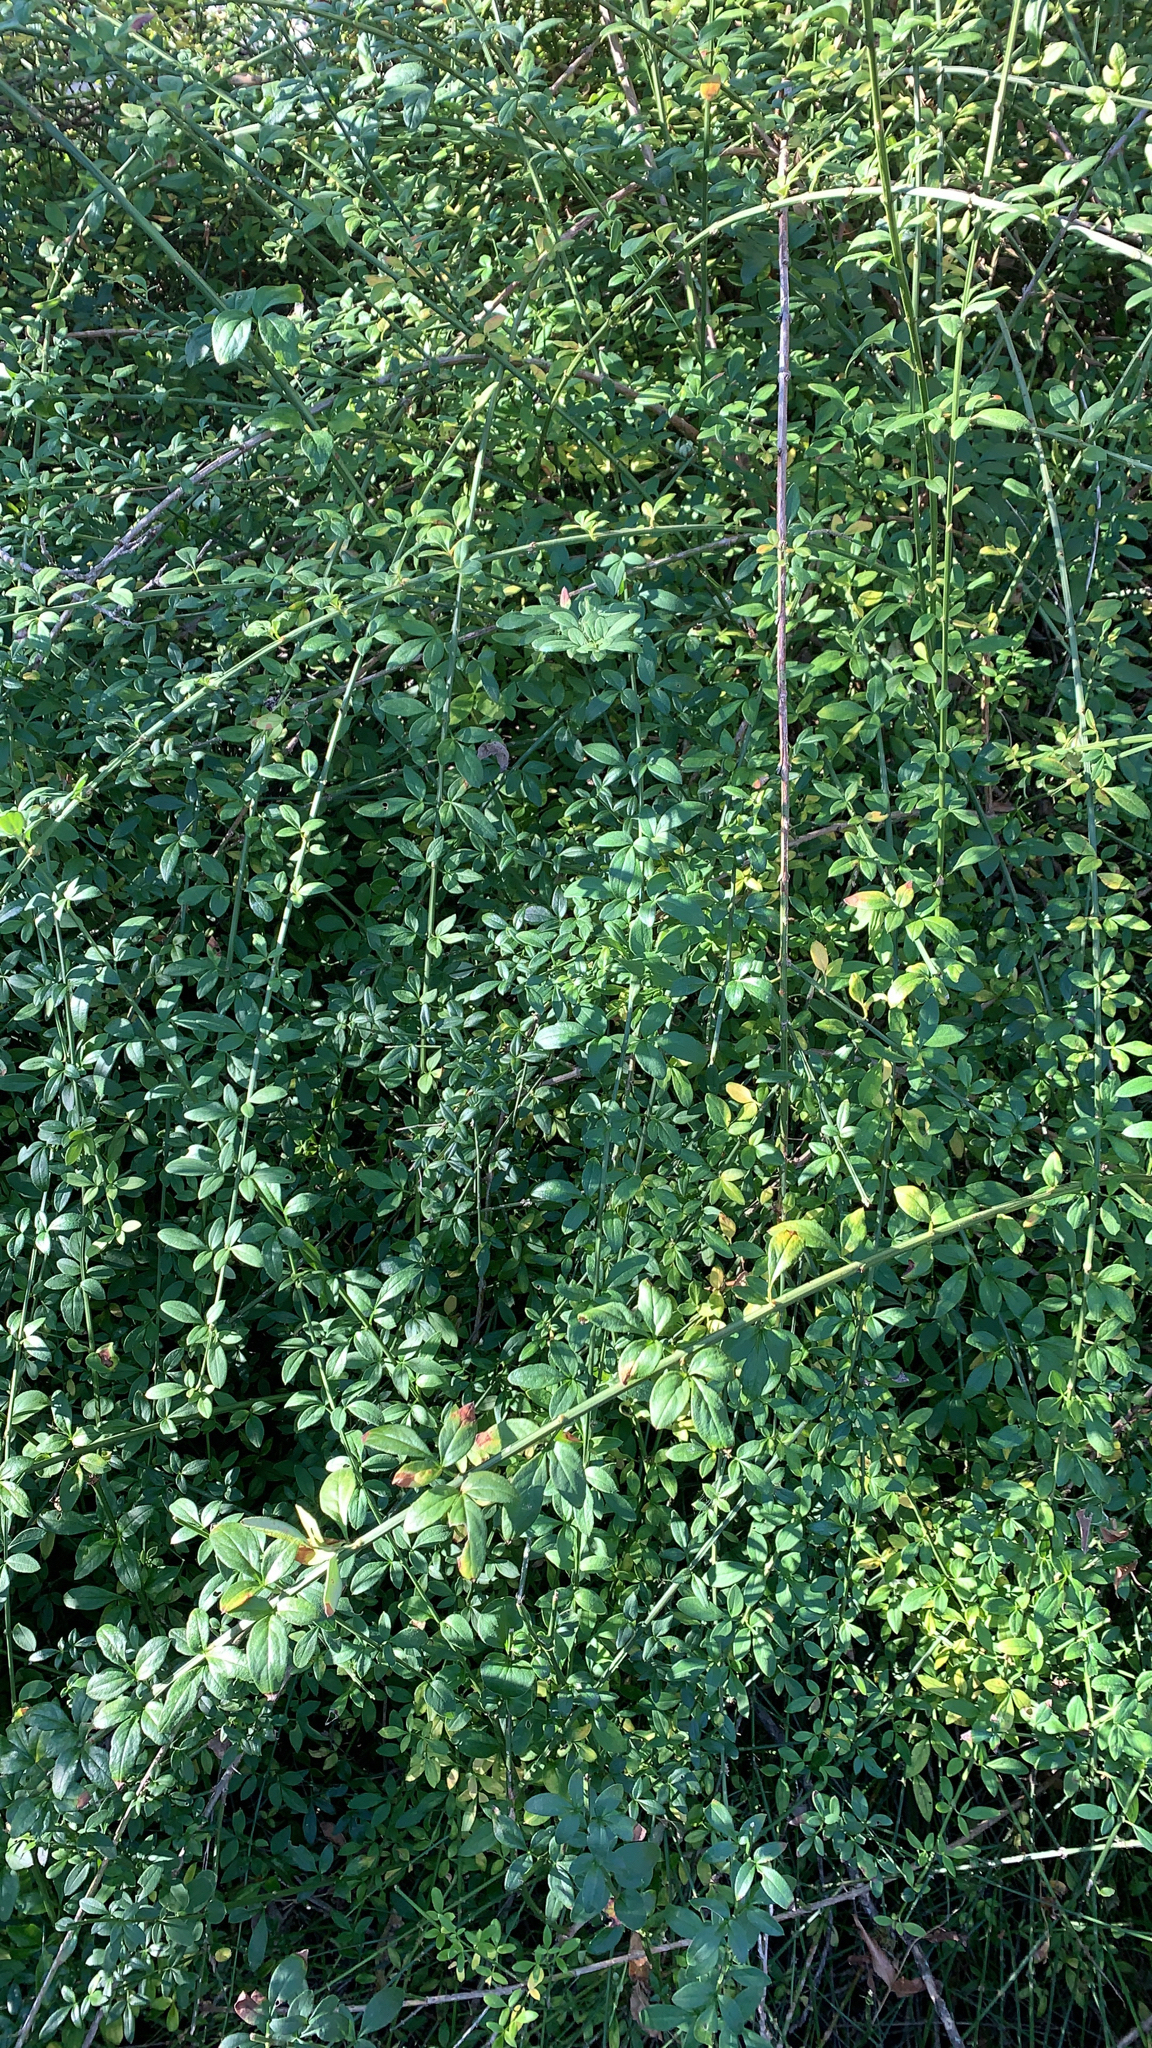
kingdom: Plantae
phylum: Tracheophyta
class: Magnoliopsida
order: Lamiales
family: Oleaceae
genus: Jasminum
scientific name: Jasminum nudiflorum
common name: Winter jasmine
